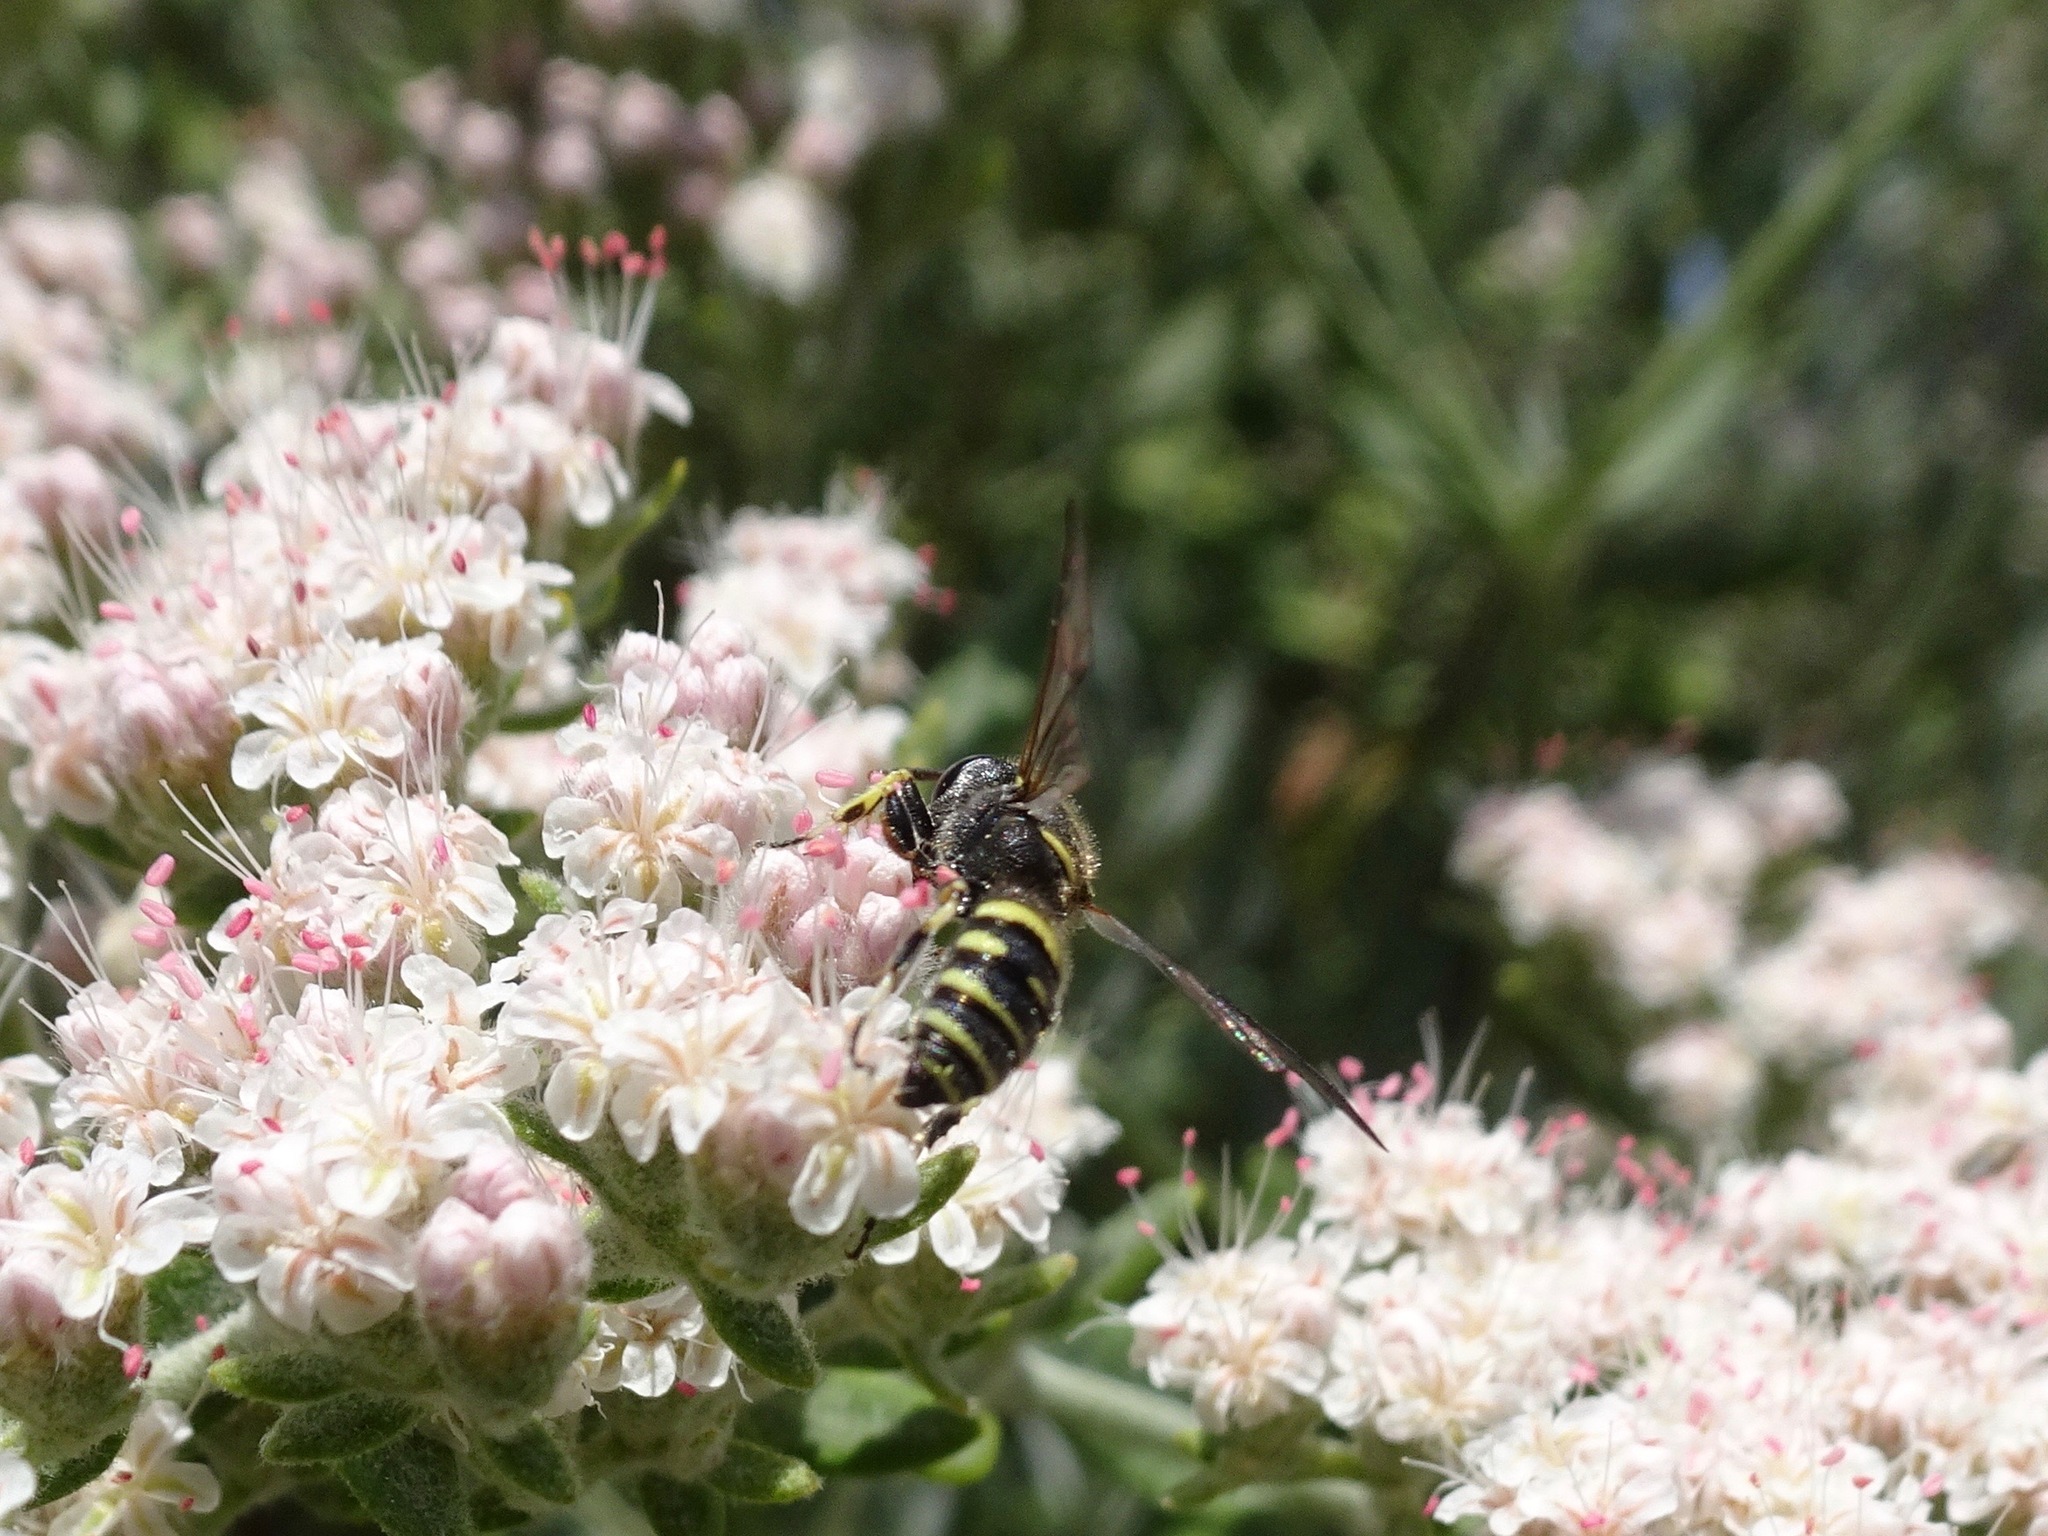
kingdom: Animalia
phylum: Arthropoda
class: Insecta
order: Hymenoptera
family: Crabronidae
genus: Cerceris
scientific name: Cerceris convergens
